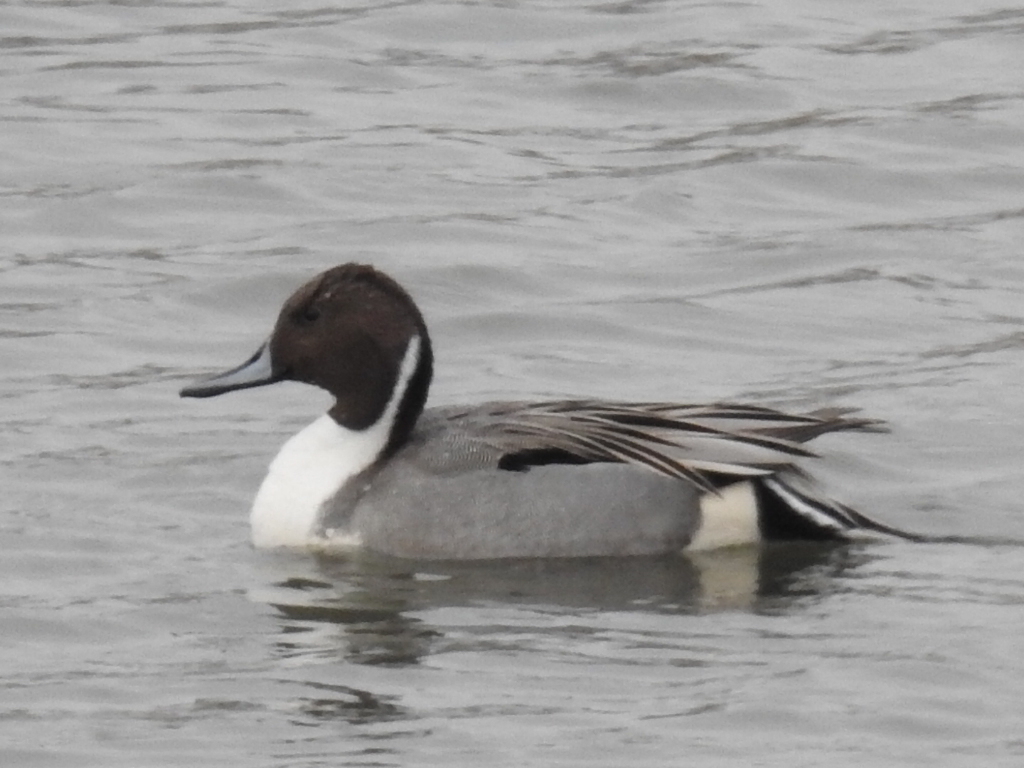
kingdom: Animalia
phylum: Chordata
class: Aves
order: Anseriformes
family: Anatidae
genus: Anas
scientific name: Anas acuta
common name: Northern pintail
